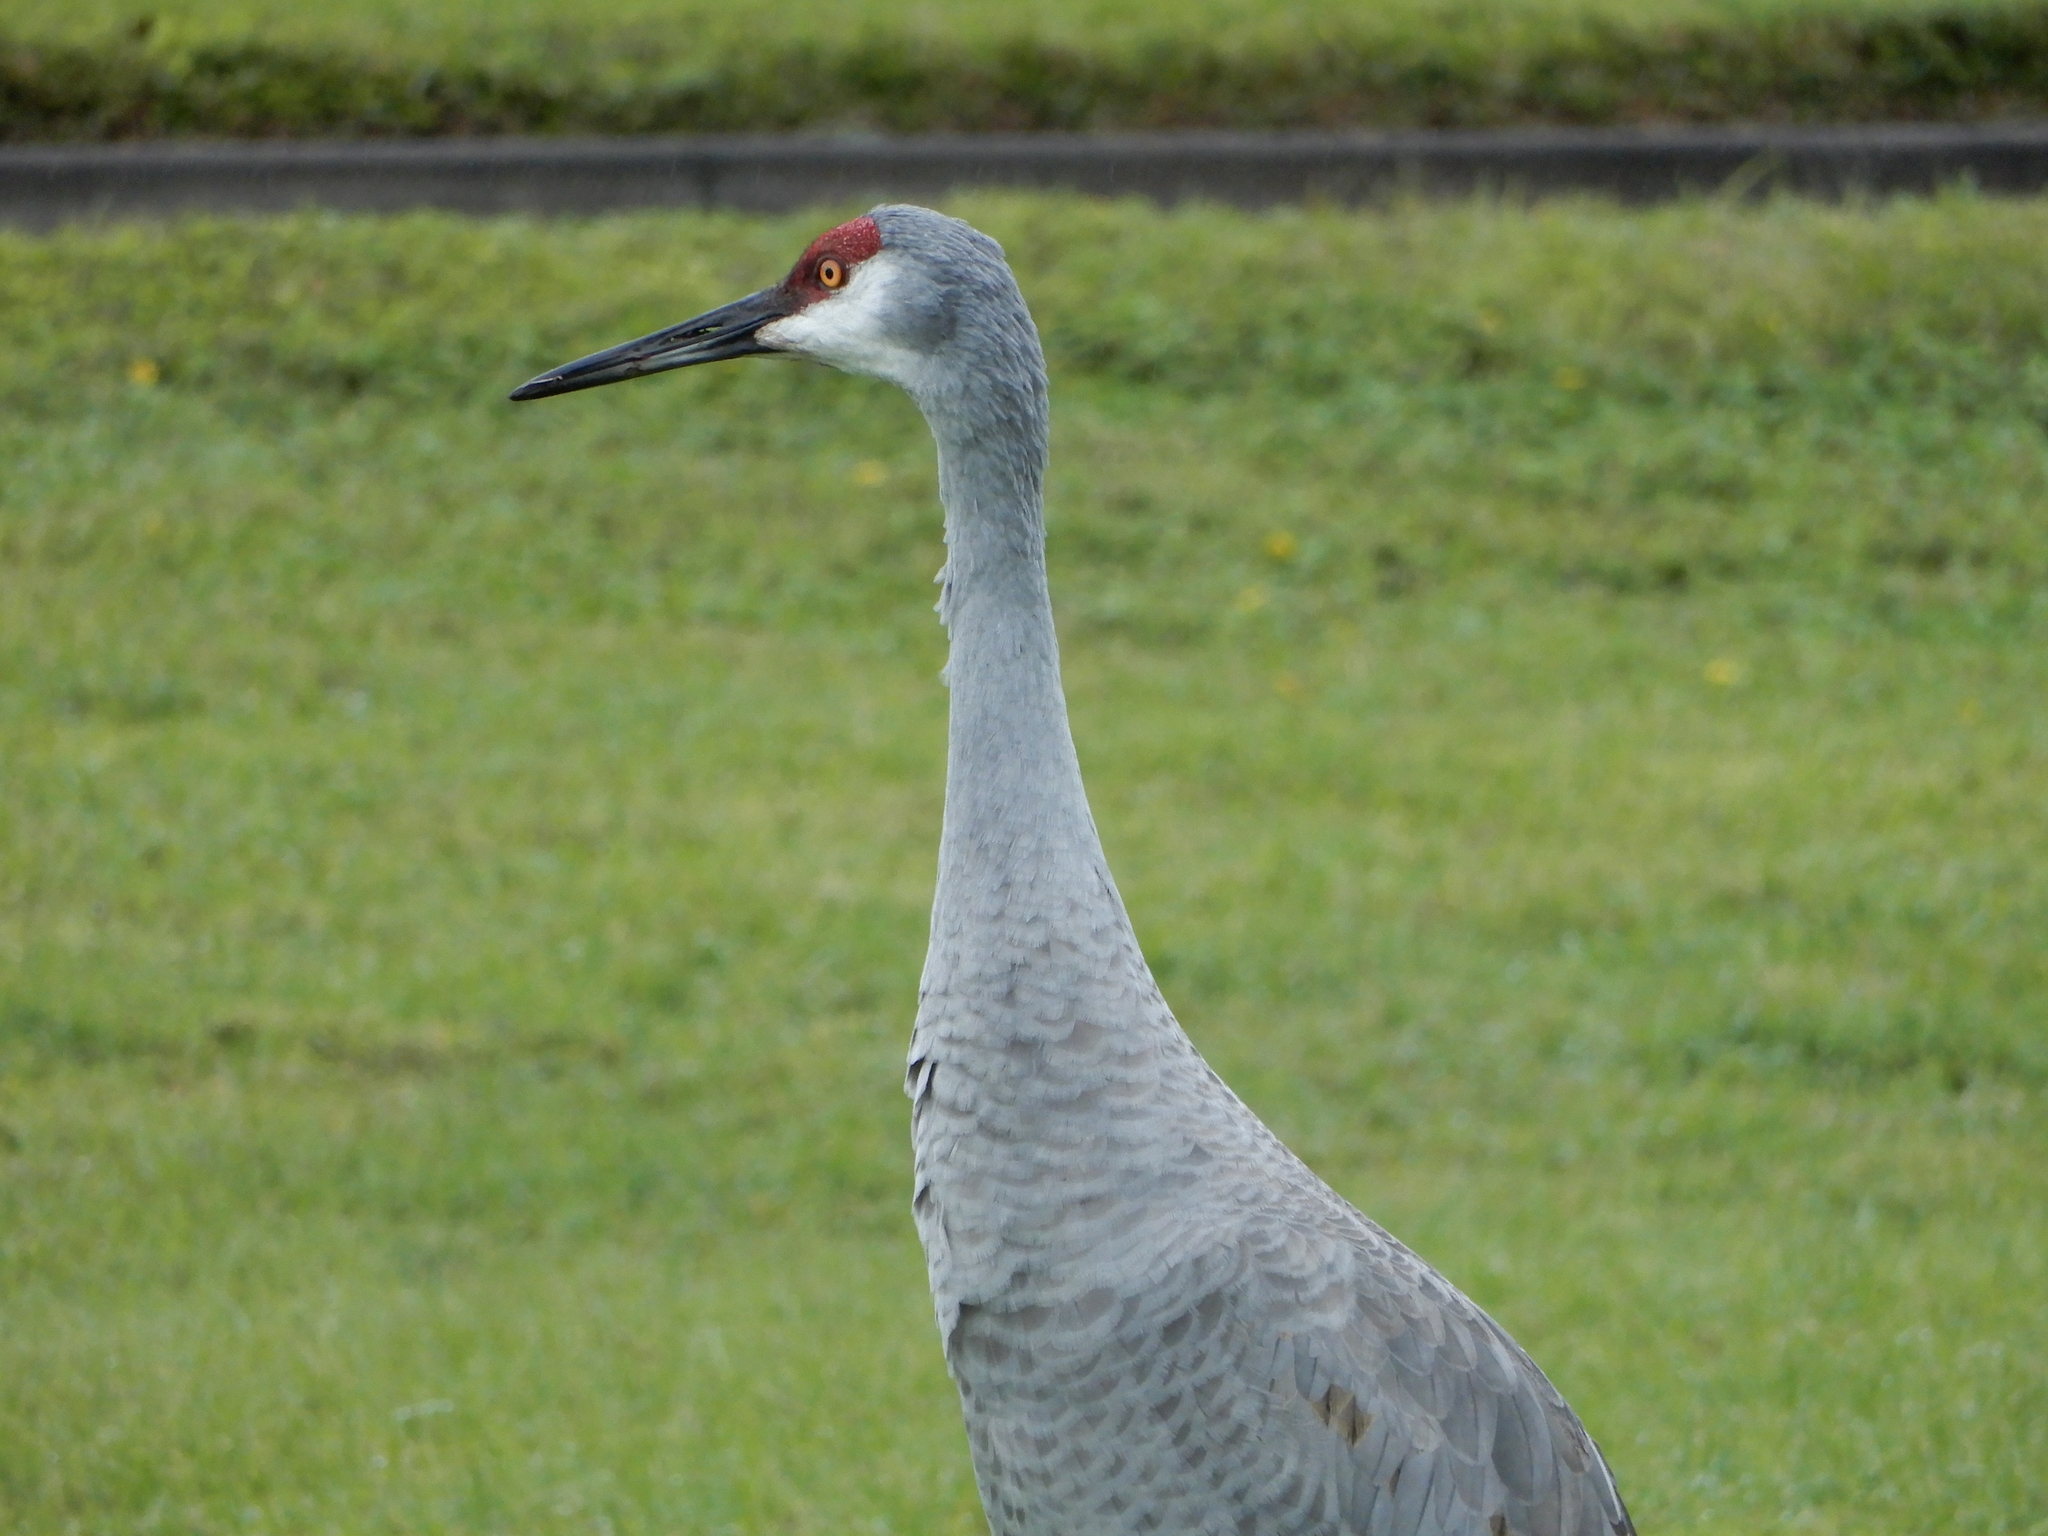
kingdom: Animalia
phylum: Chordata
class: Aves
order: Gruiformes
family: Gruidae
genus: Grus
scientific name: Grus canadensis
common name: Sandhill crane
